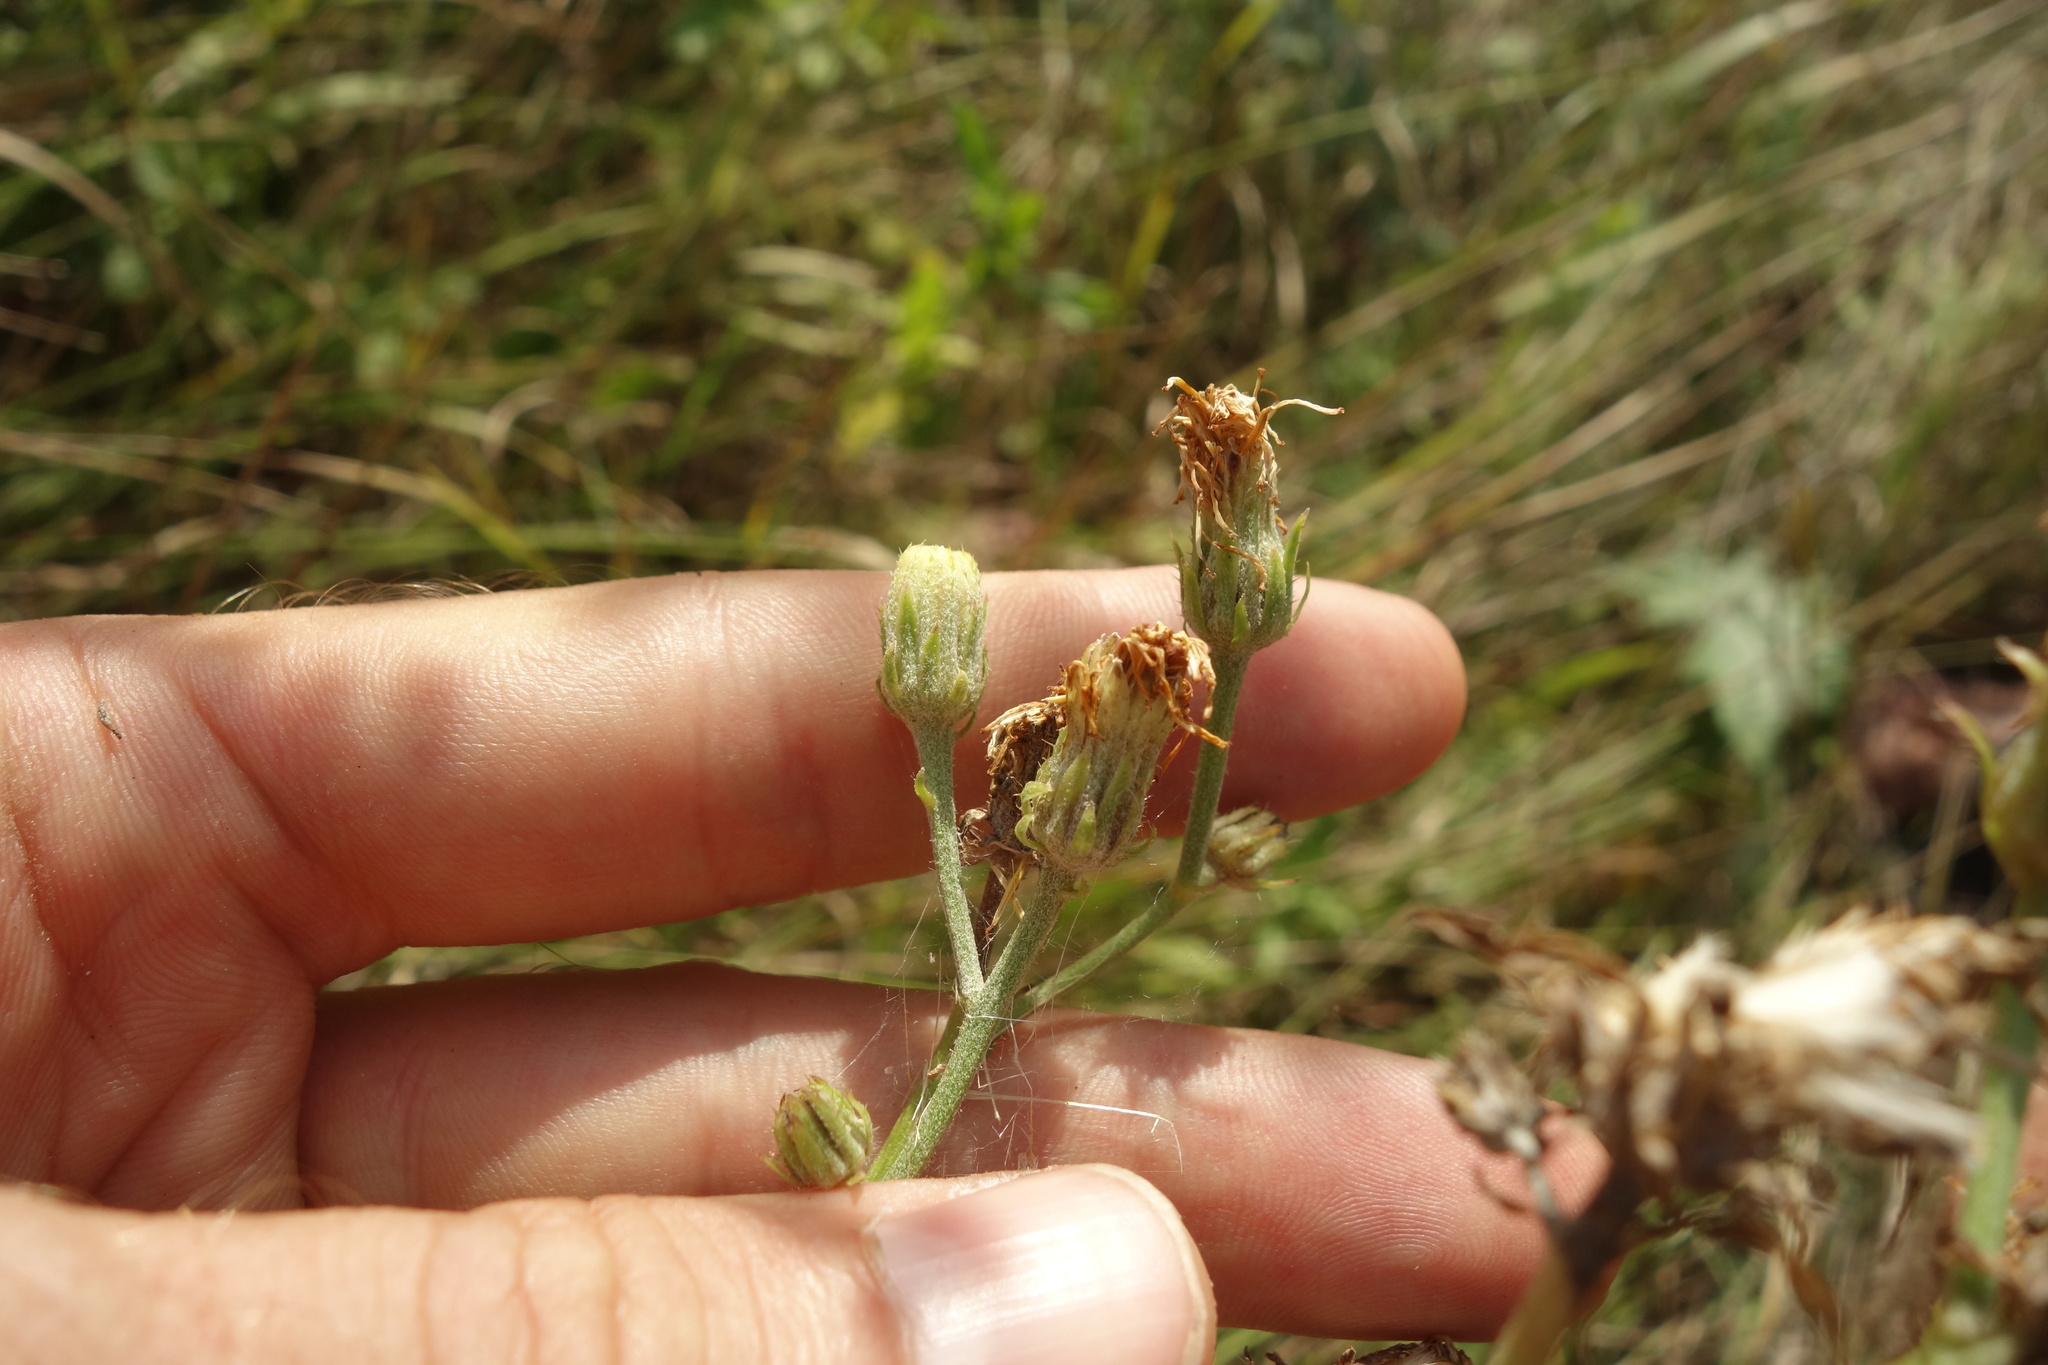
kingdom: Plantae
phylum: Tracheophyta
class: Magnoliopsida
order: Asterales
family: Asteraceae
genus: Picris
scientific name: Picris hieracioides
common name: Hawkweed oxtongue
